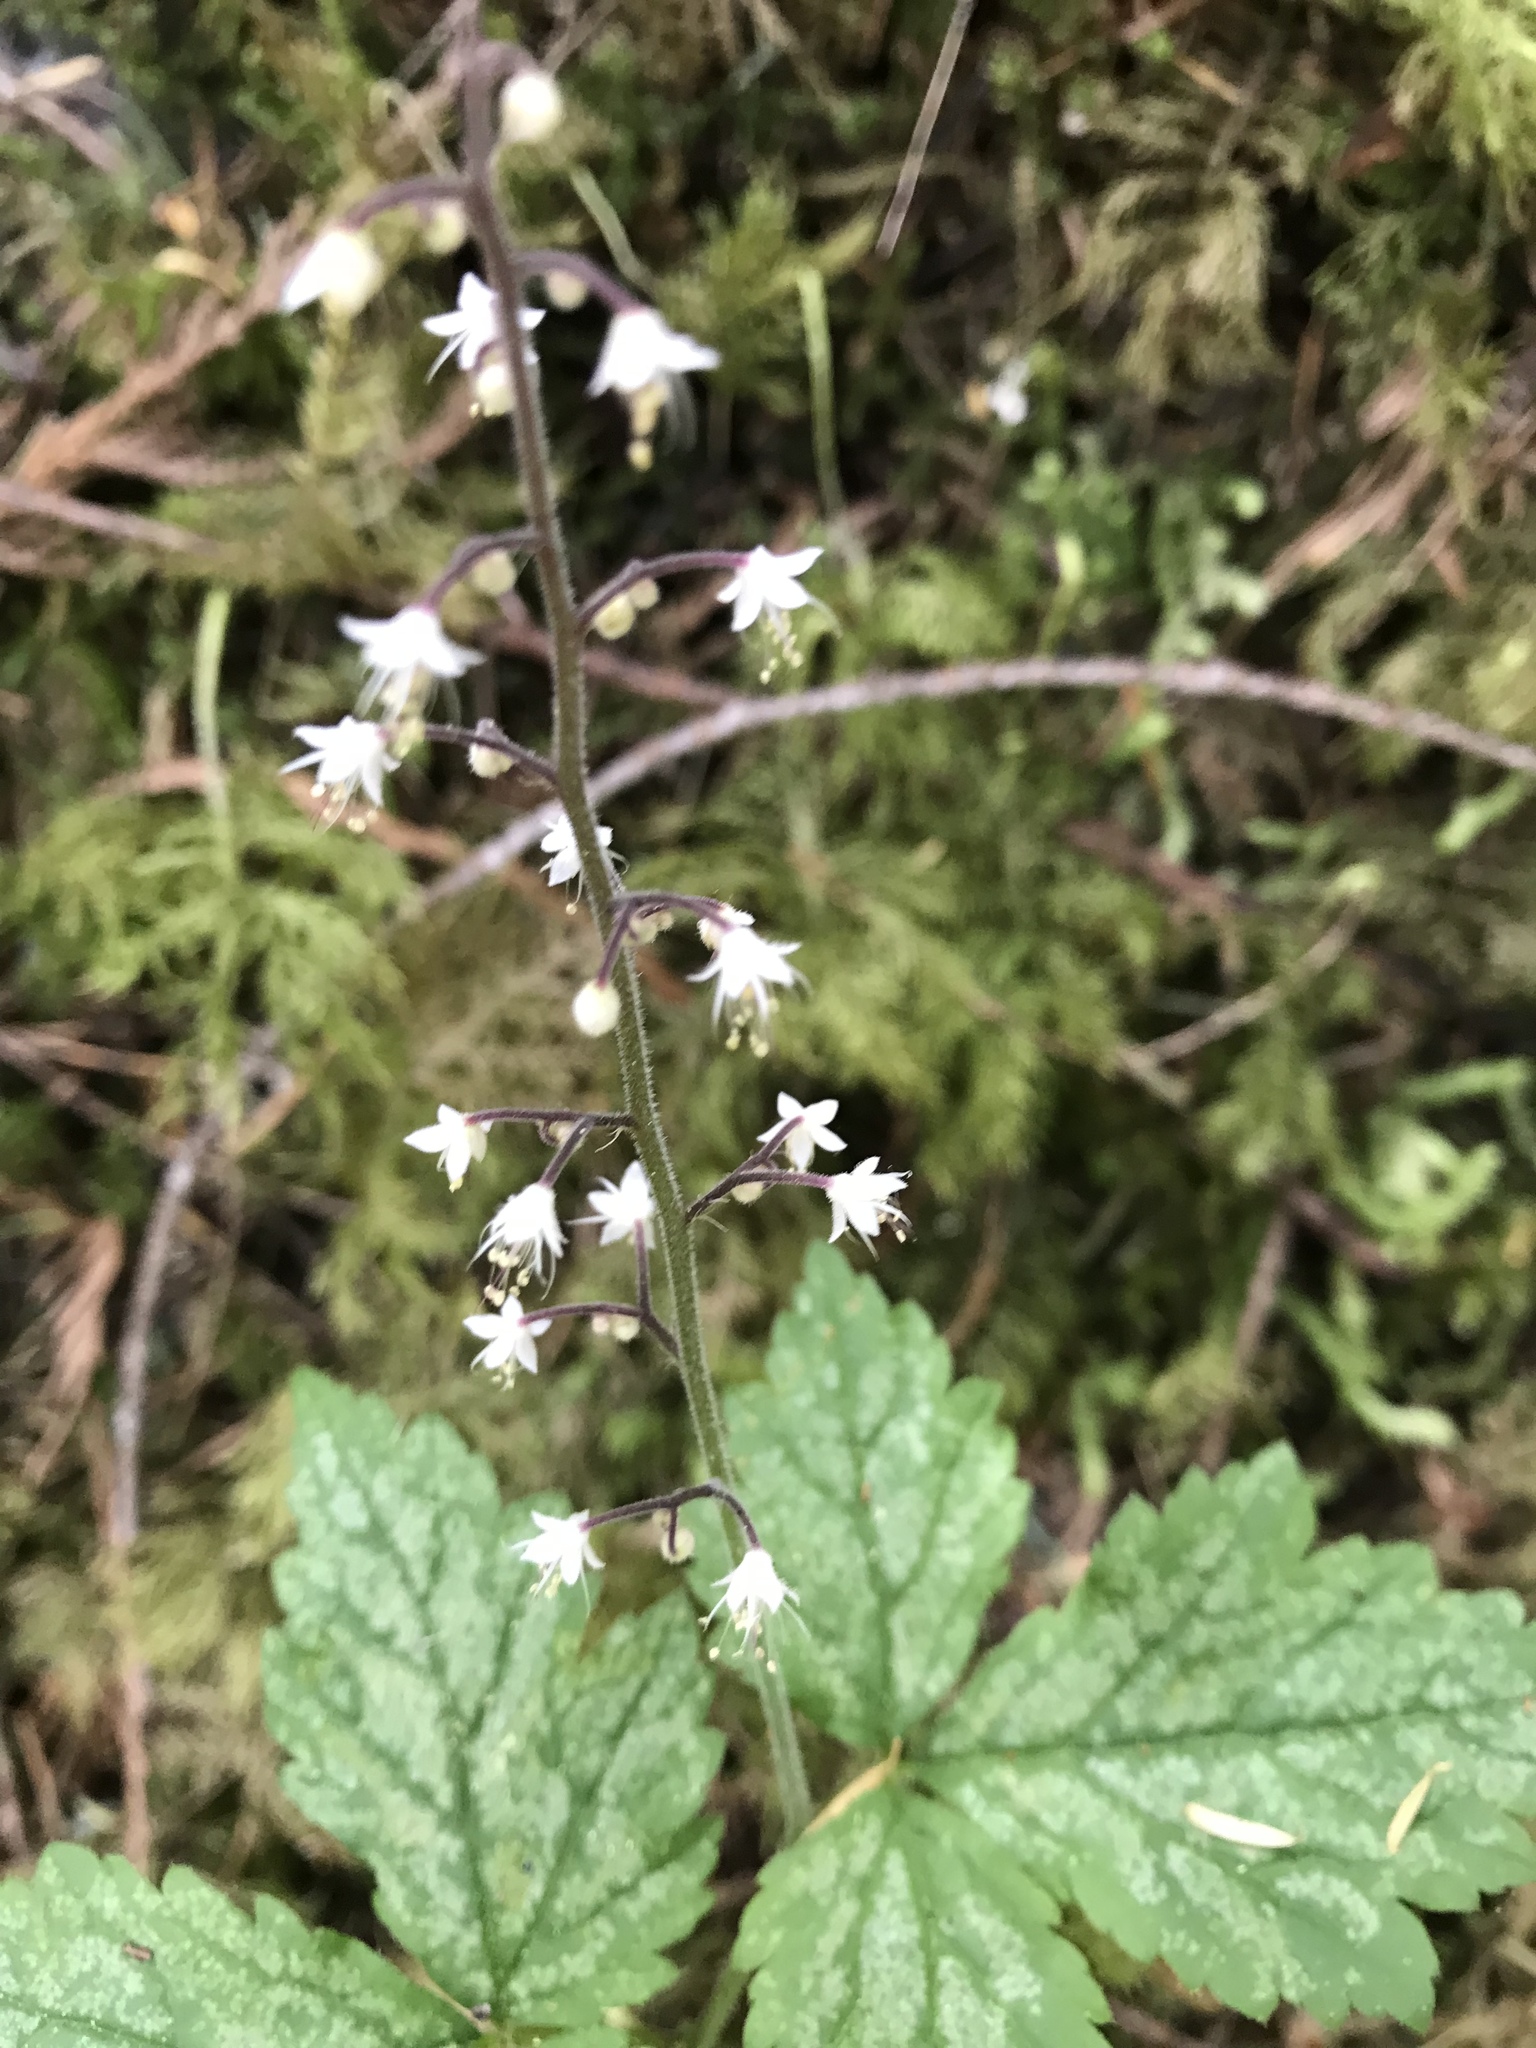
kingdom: Plantae
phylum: Tracheophyta
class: Magnoliopsida
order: Saxifragales
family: Saxifragaceae
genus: Tiarella
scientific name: Tiarella trifoliata
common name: Sugar-scoop
